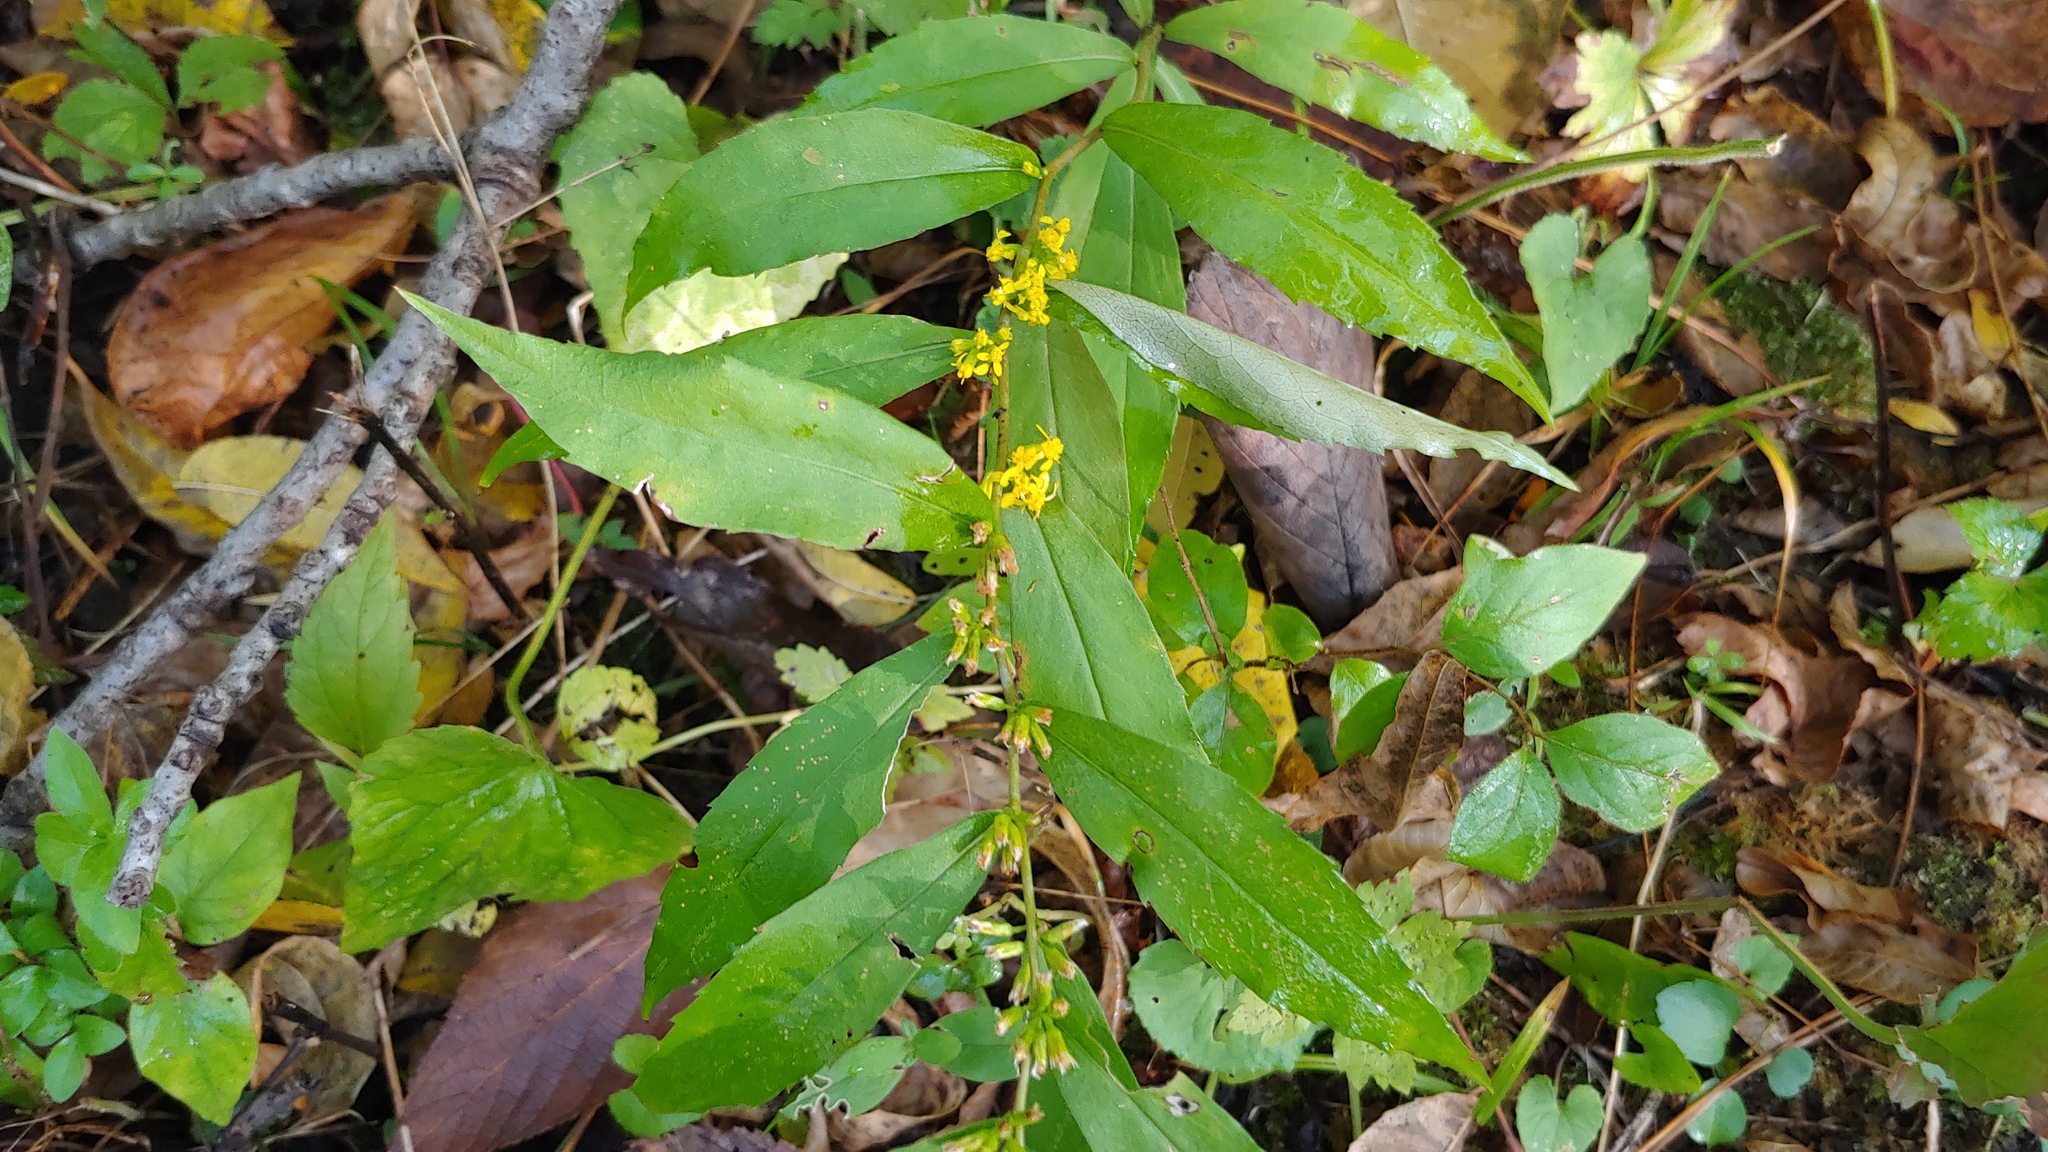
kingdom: Plantae
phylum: Tracheophyta
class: Magnoliopsida
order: Asterales
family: Asteraceae
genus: Solidago
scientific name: Solidago caesia
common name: Woodland goldenrod
